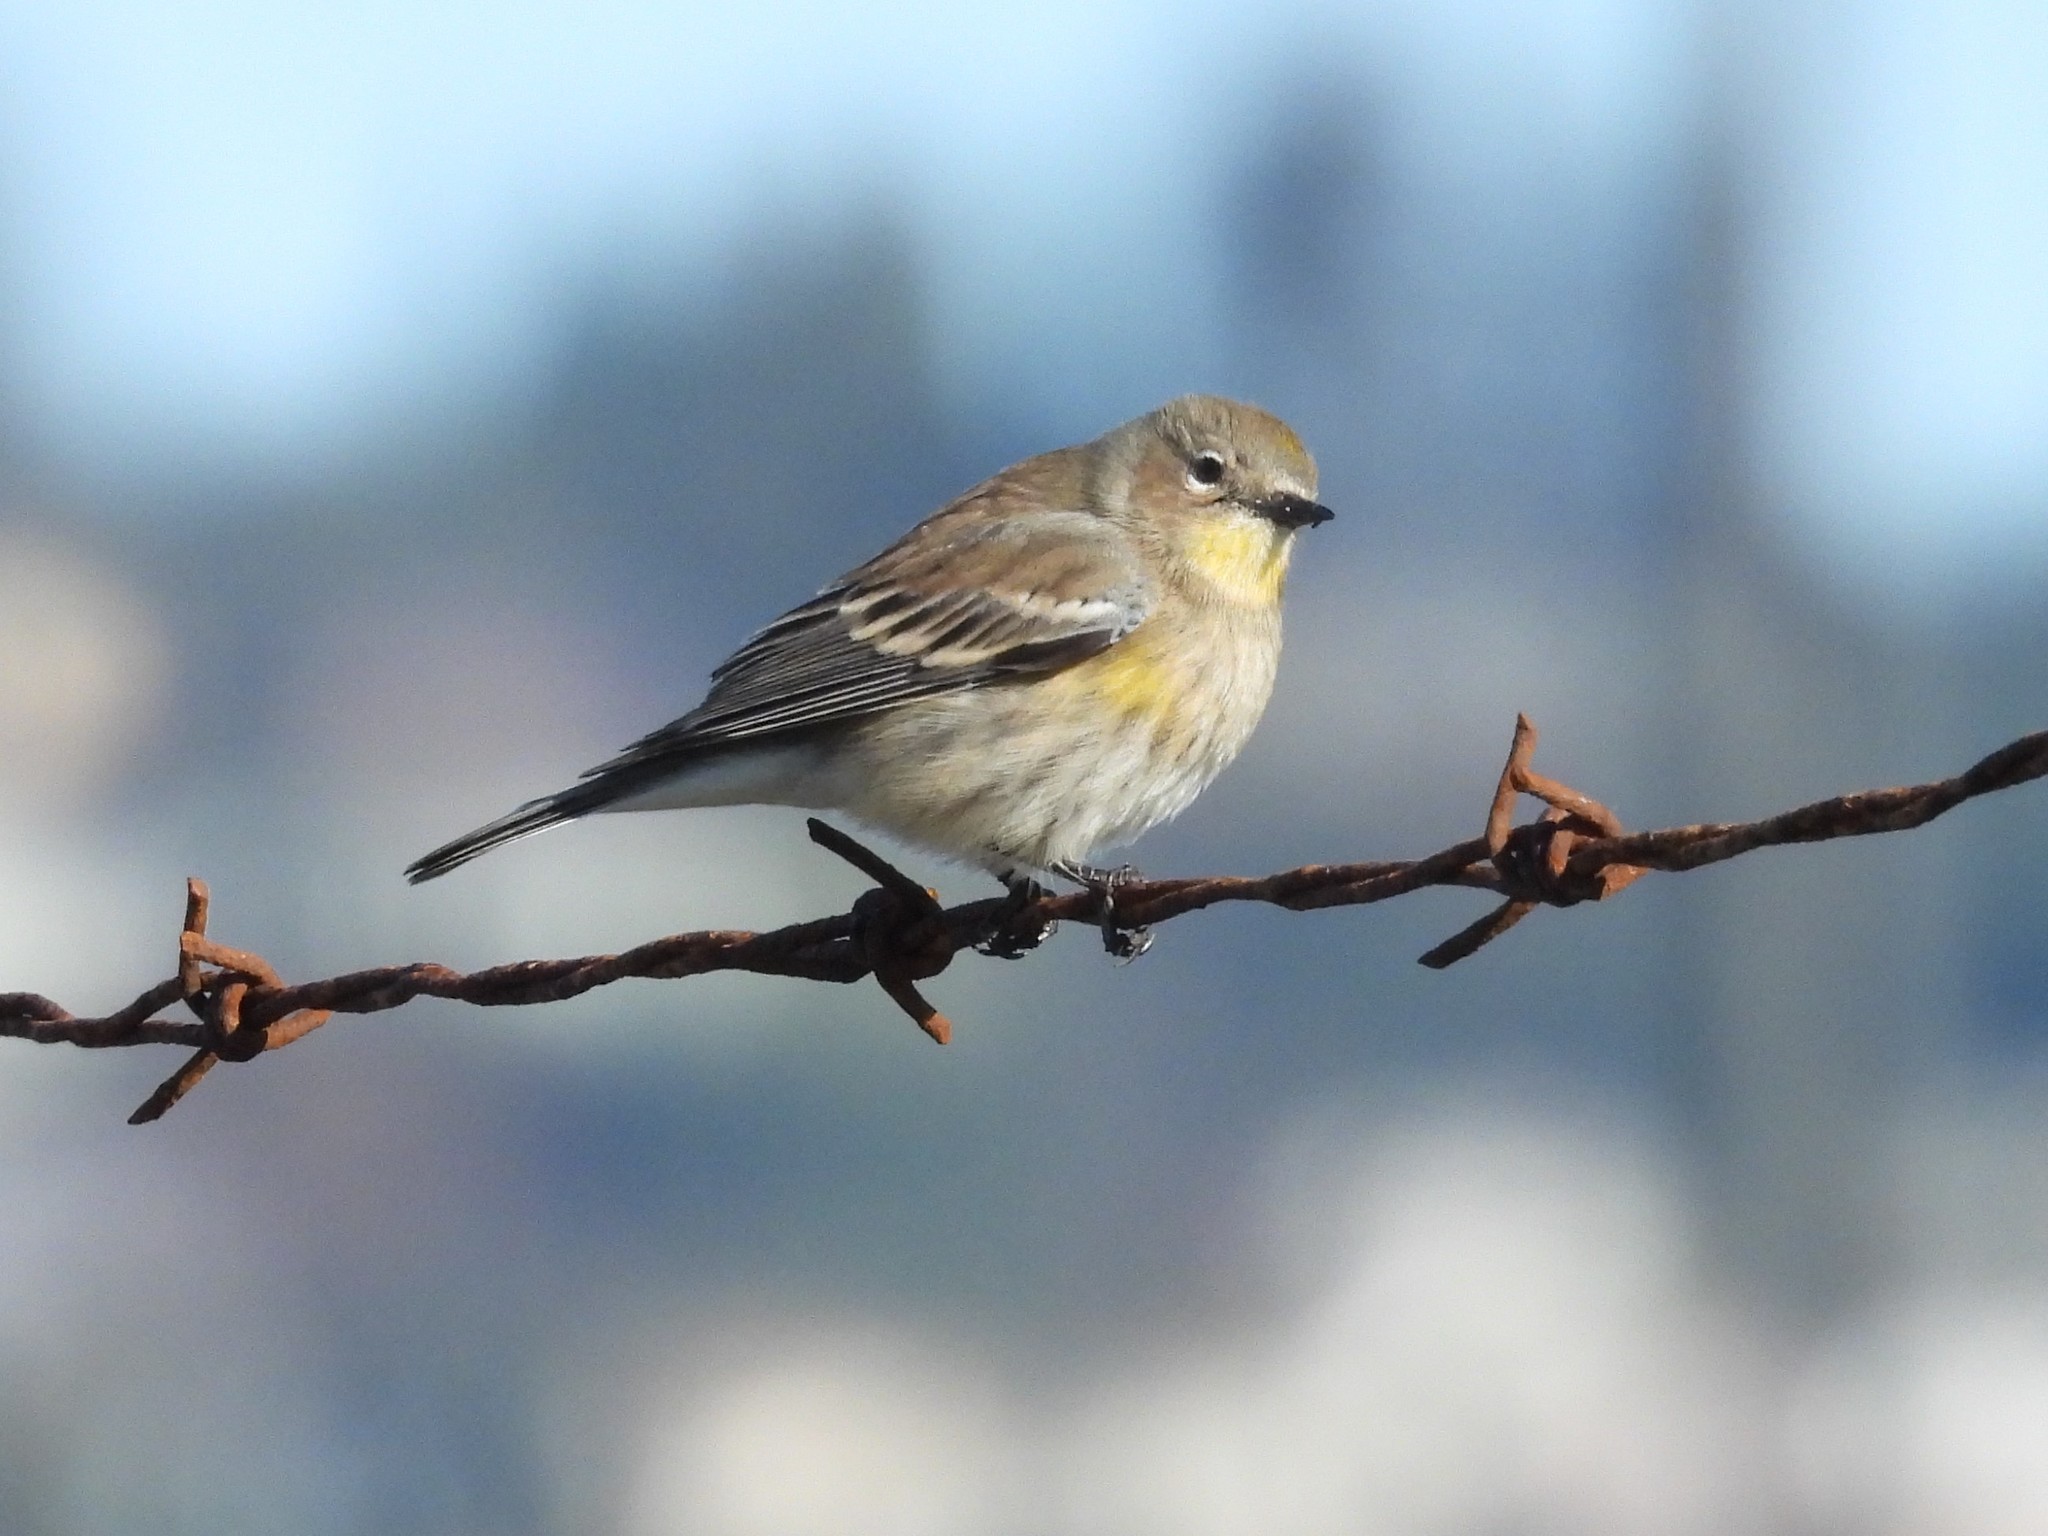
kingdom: Animalia
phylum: Chordata
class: Aves
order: Passeriformes
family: Parulidae
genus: Setophaga
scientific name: Setophaga coronata
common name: Myrtle warbler
